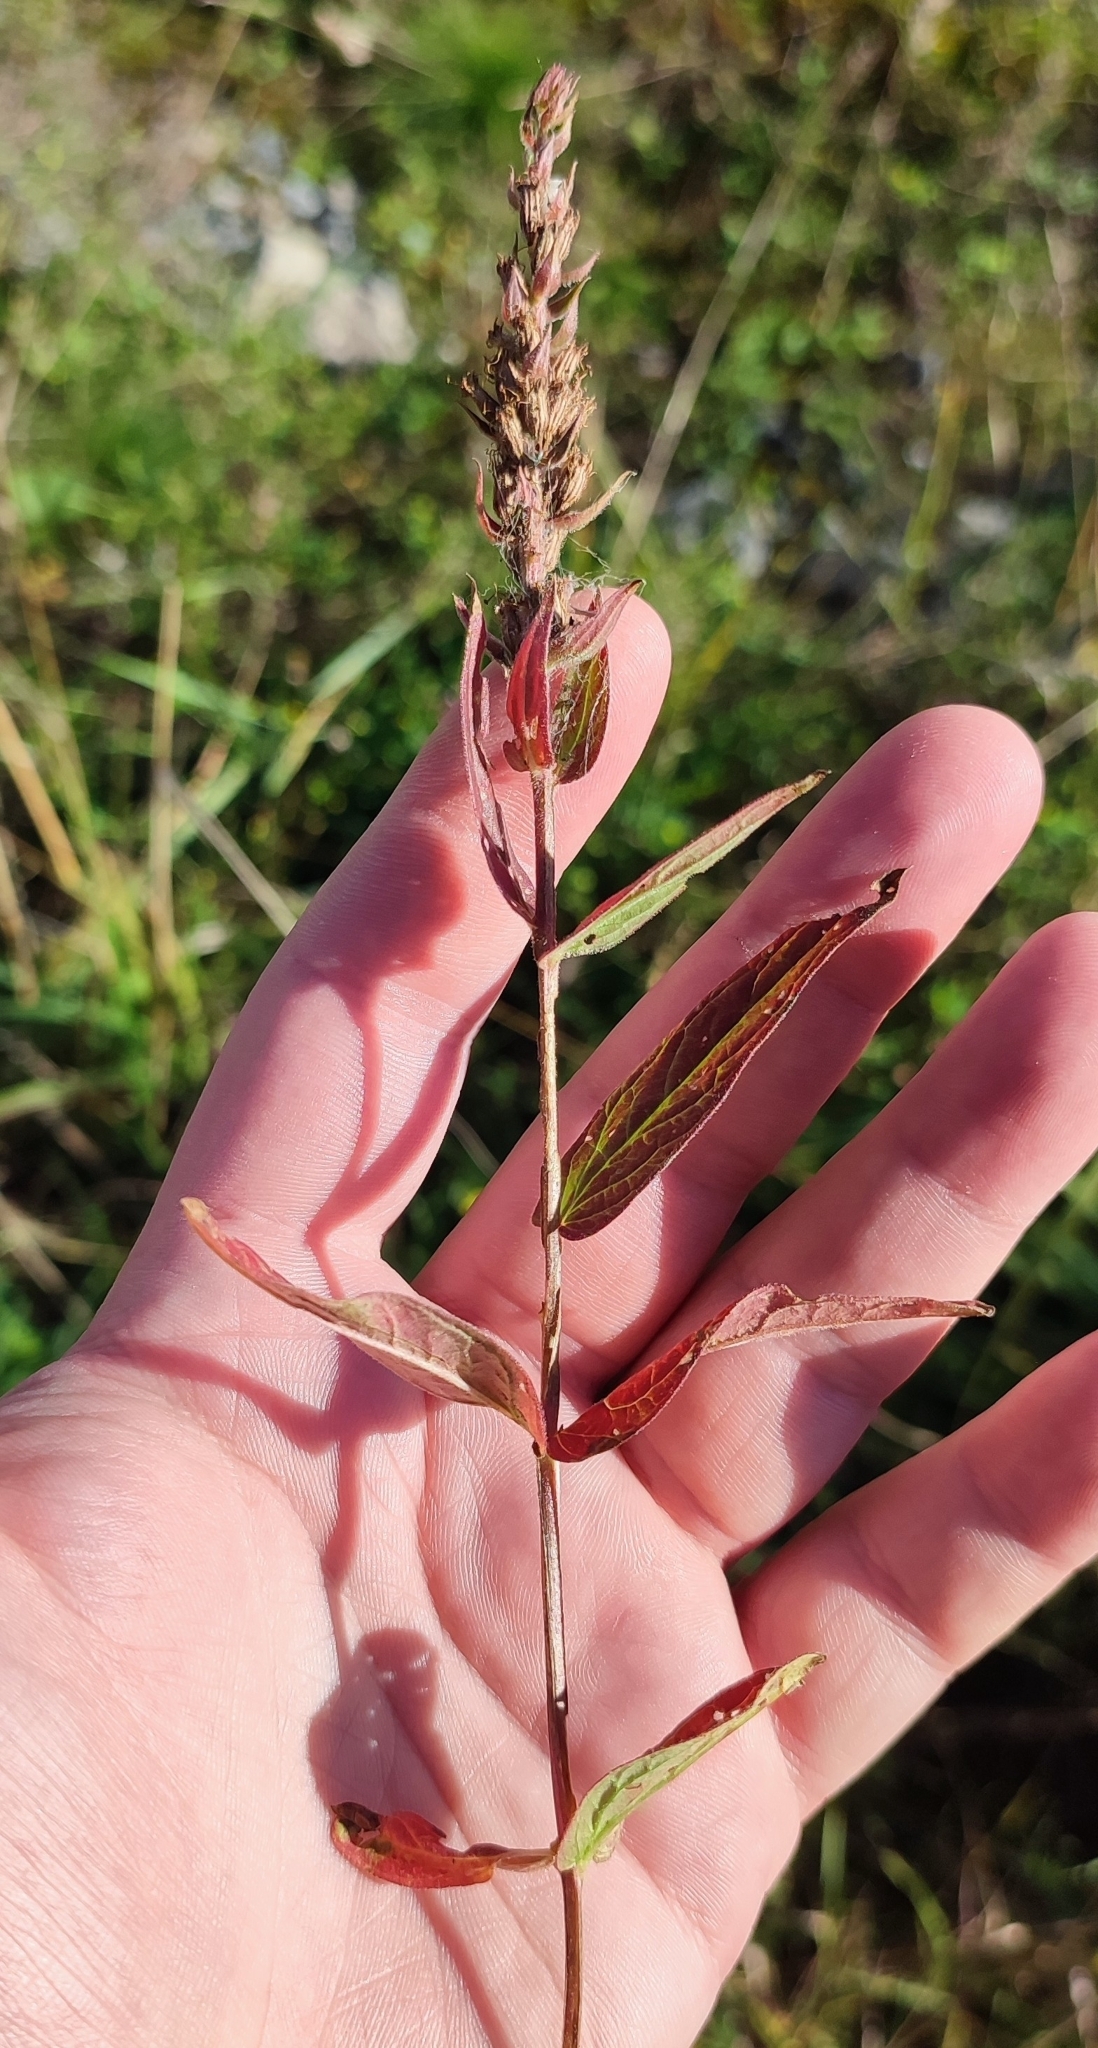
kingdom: Plantae
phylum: Tracheophyta
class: Magnoliopsida
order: Myrtales
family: Lythraceae
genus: Lythrum
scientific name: Lythrum salicaria
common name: Purple loosestrife
